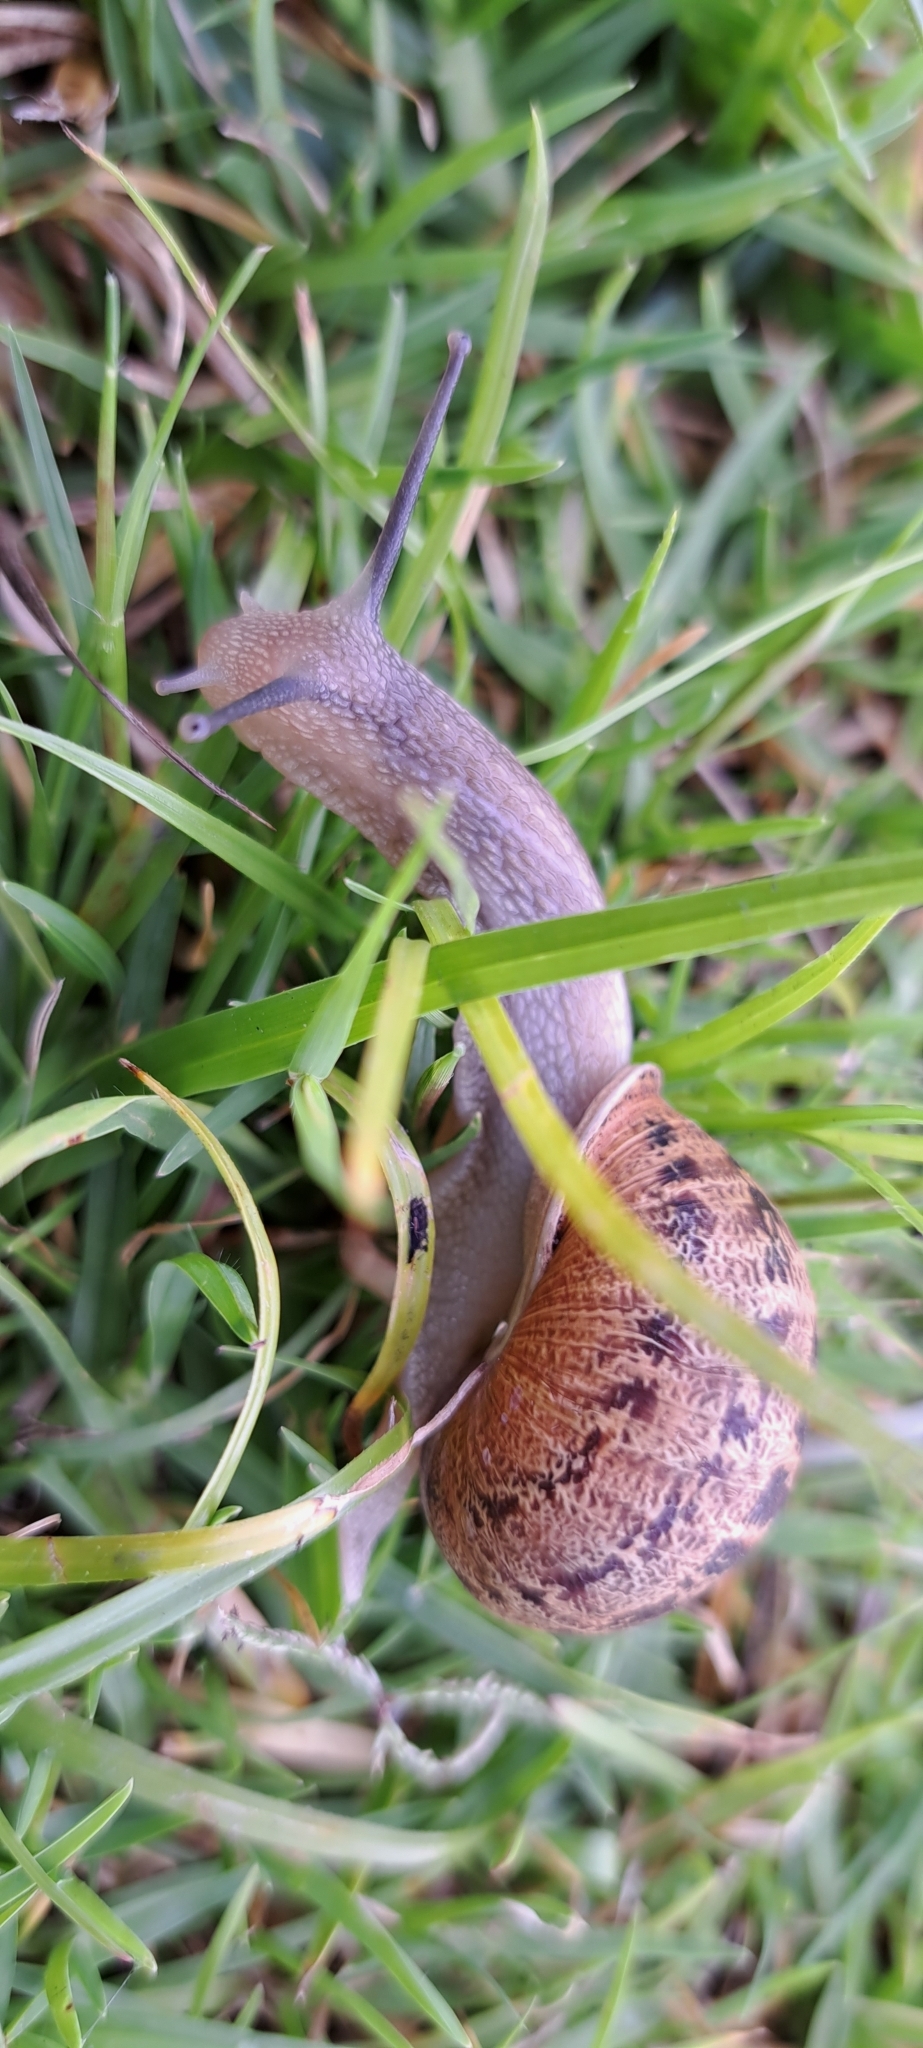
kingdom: Animalia
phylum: Mollusca
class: Gastropoda
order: Stylommatophora
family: Helicidae
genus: Cornu
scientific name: Cornu aspersum
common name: Brown garden snail
